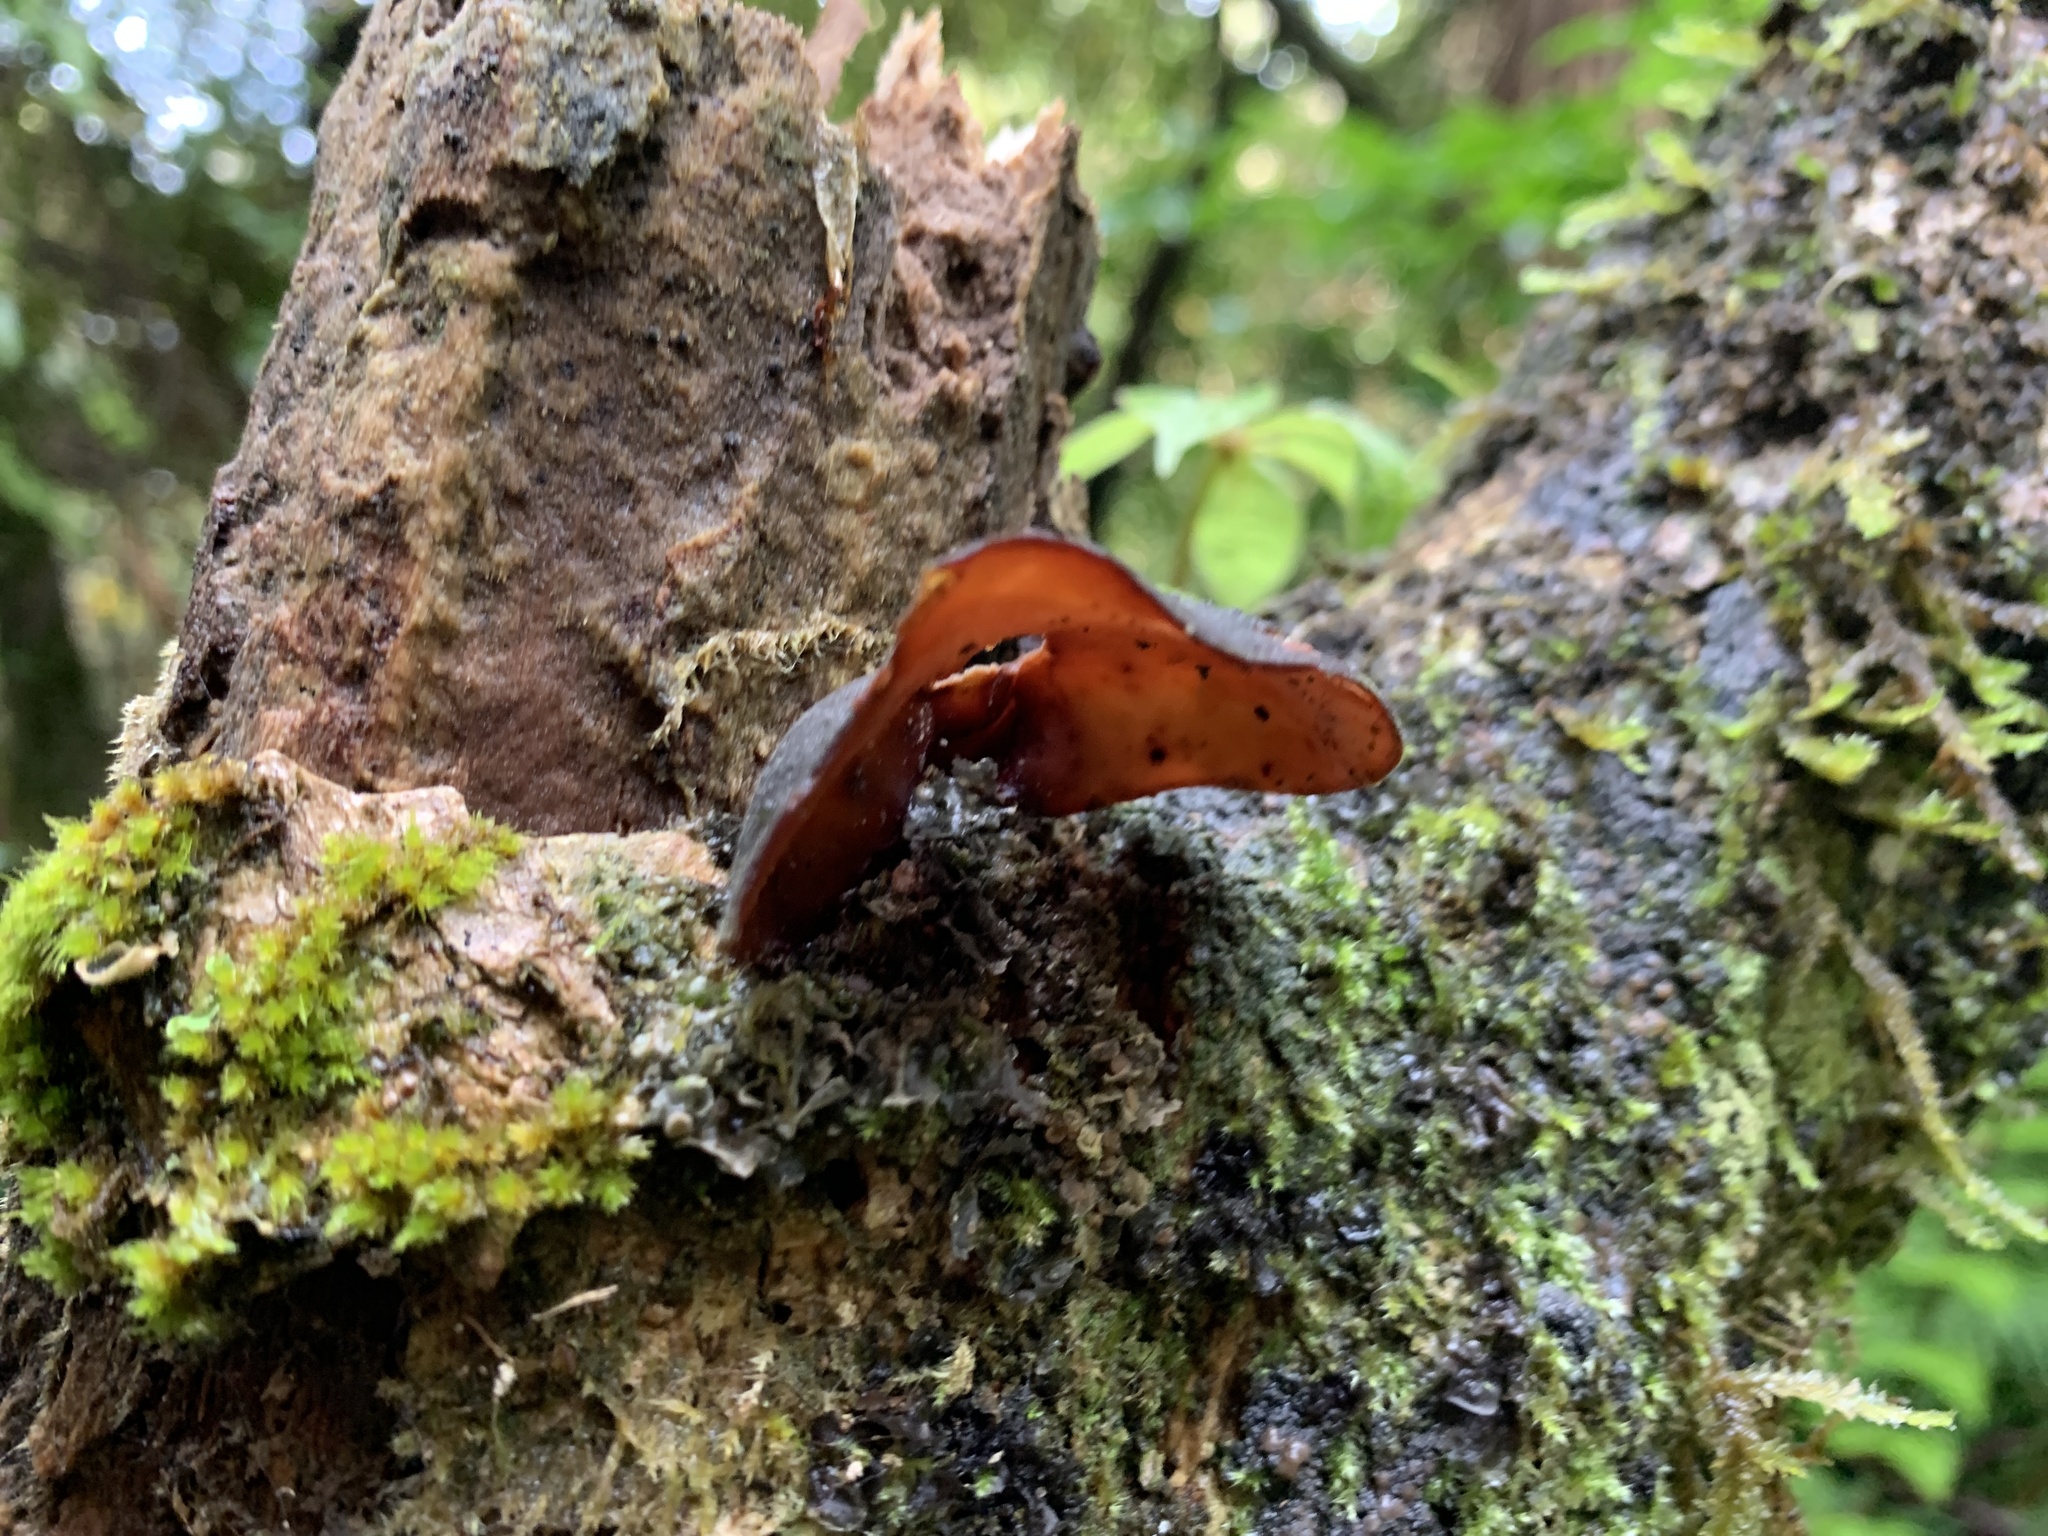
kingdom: Fungi
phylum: Basidiomycota
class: Agaricomycetes
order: Auriculariales
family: Auriculariaceae
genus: Auricularia
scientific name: Auricularia cornea
